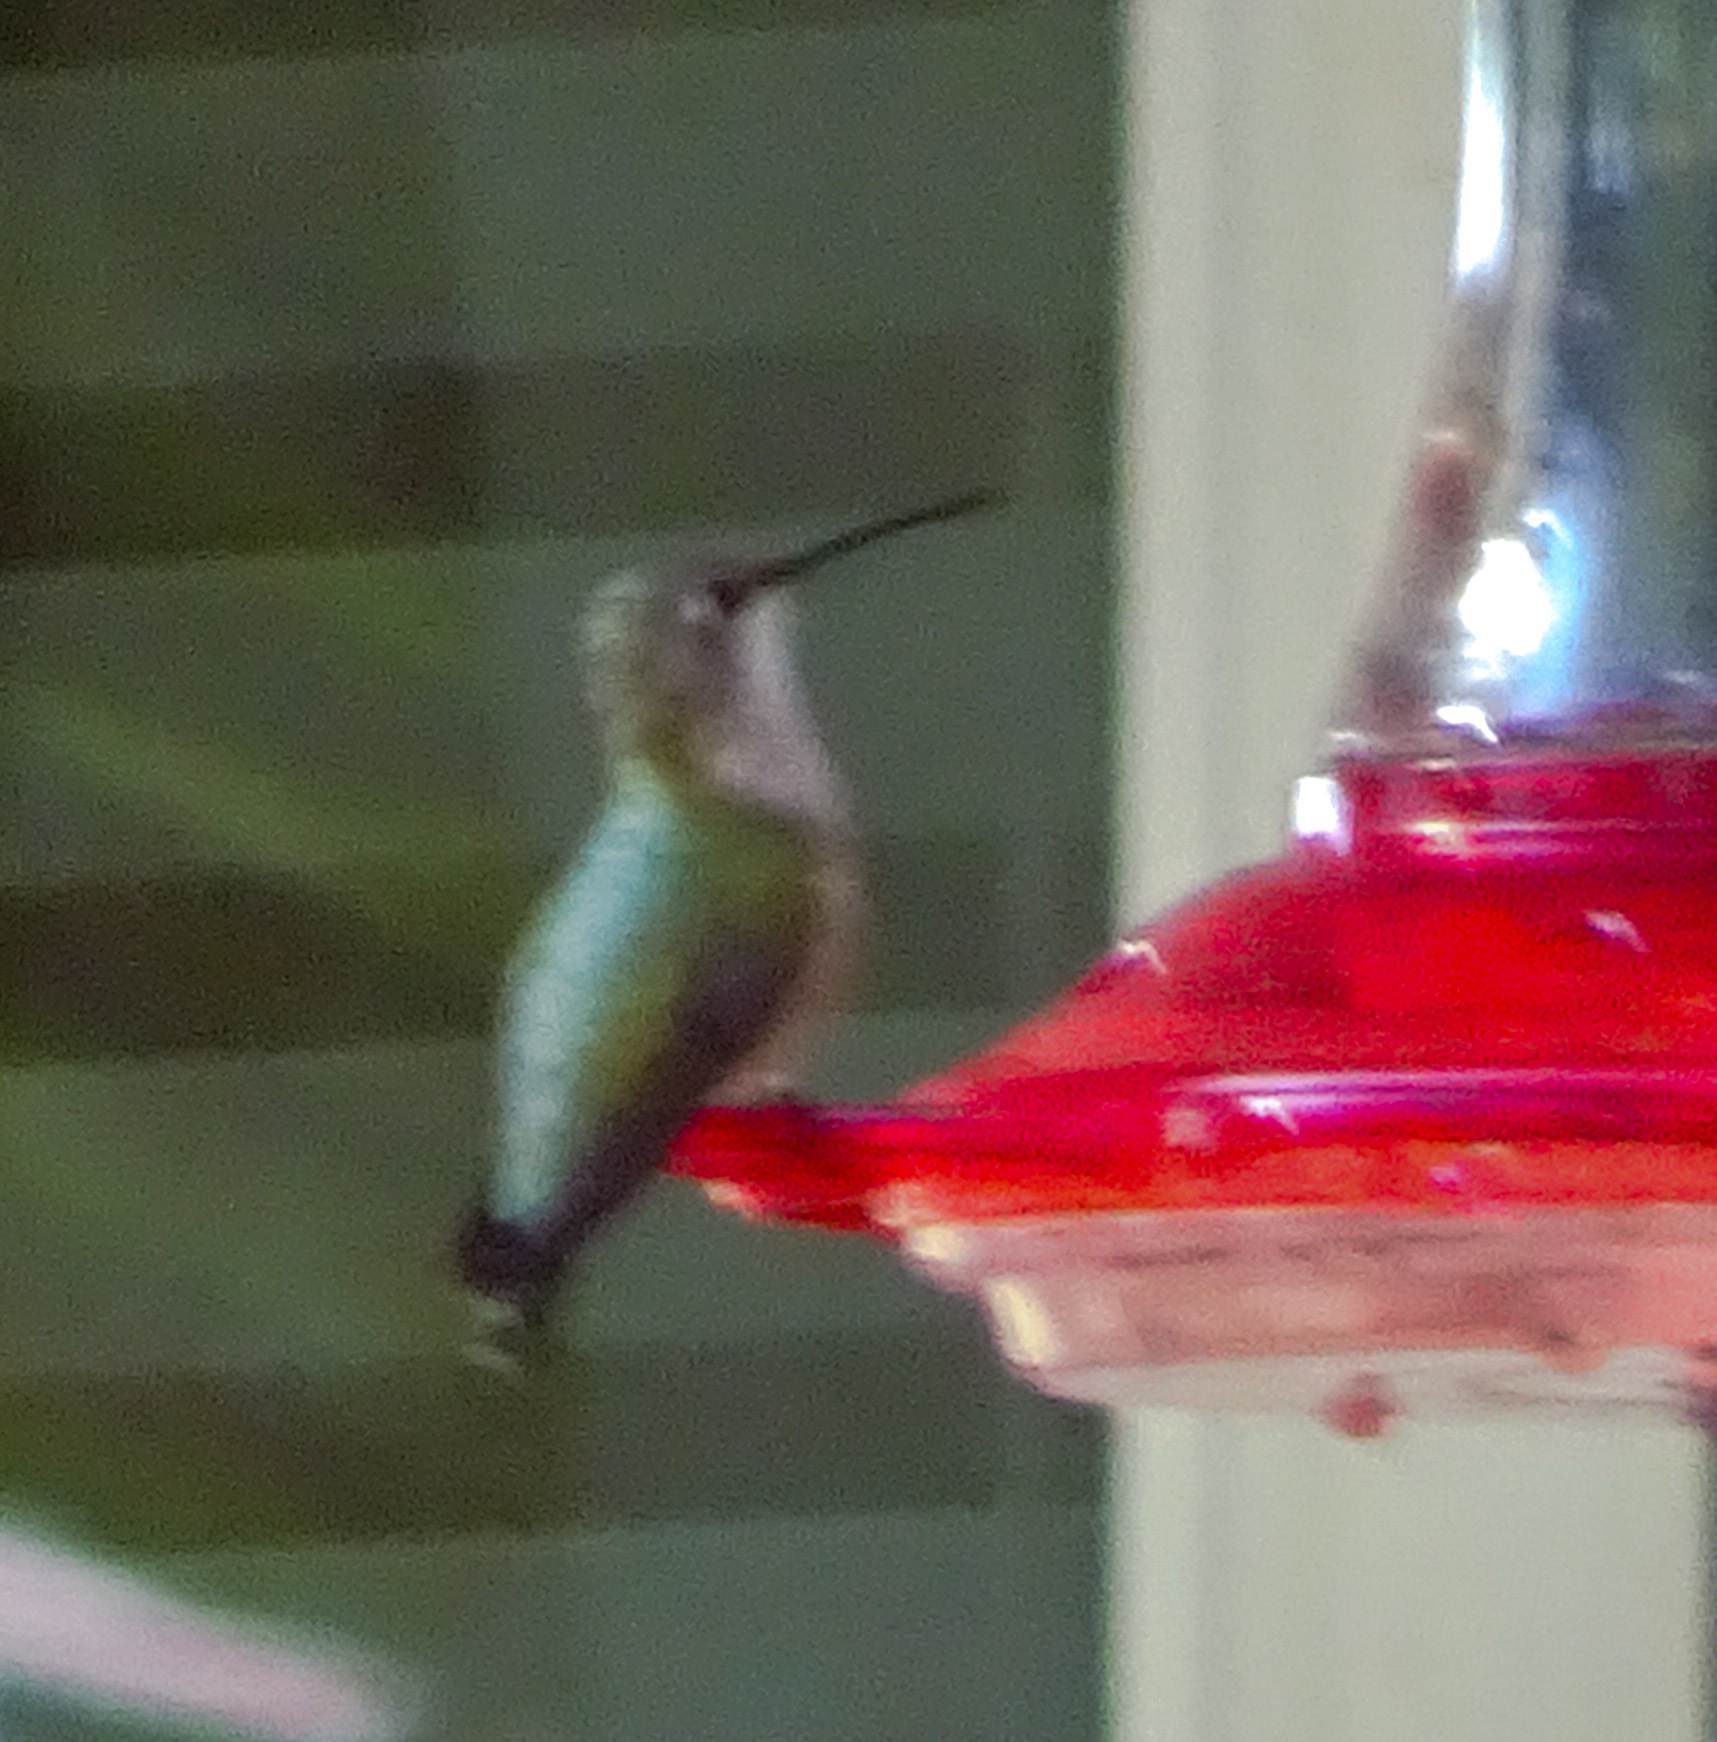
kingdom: Animalia
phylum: Chordata
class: Aves
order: Apodiformes
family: Trochilidae
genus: Archilochus
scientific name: Archilochus alexandri
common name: Black-chinned hummingbird
